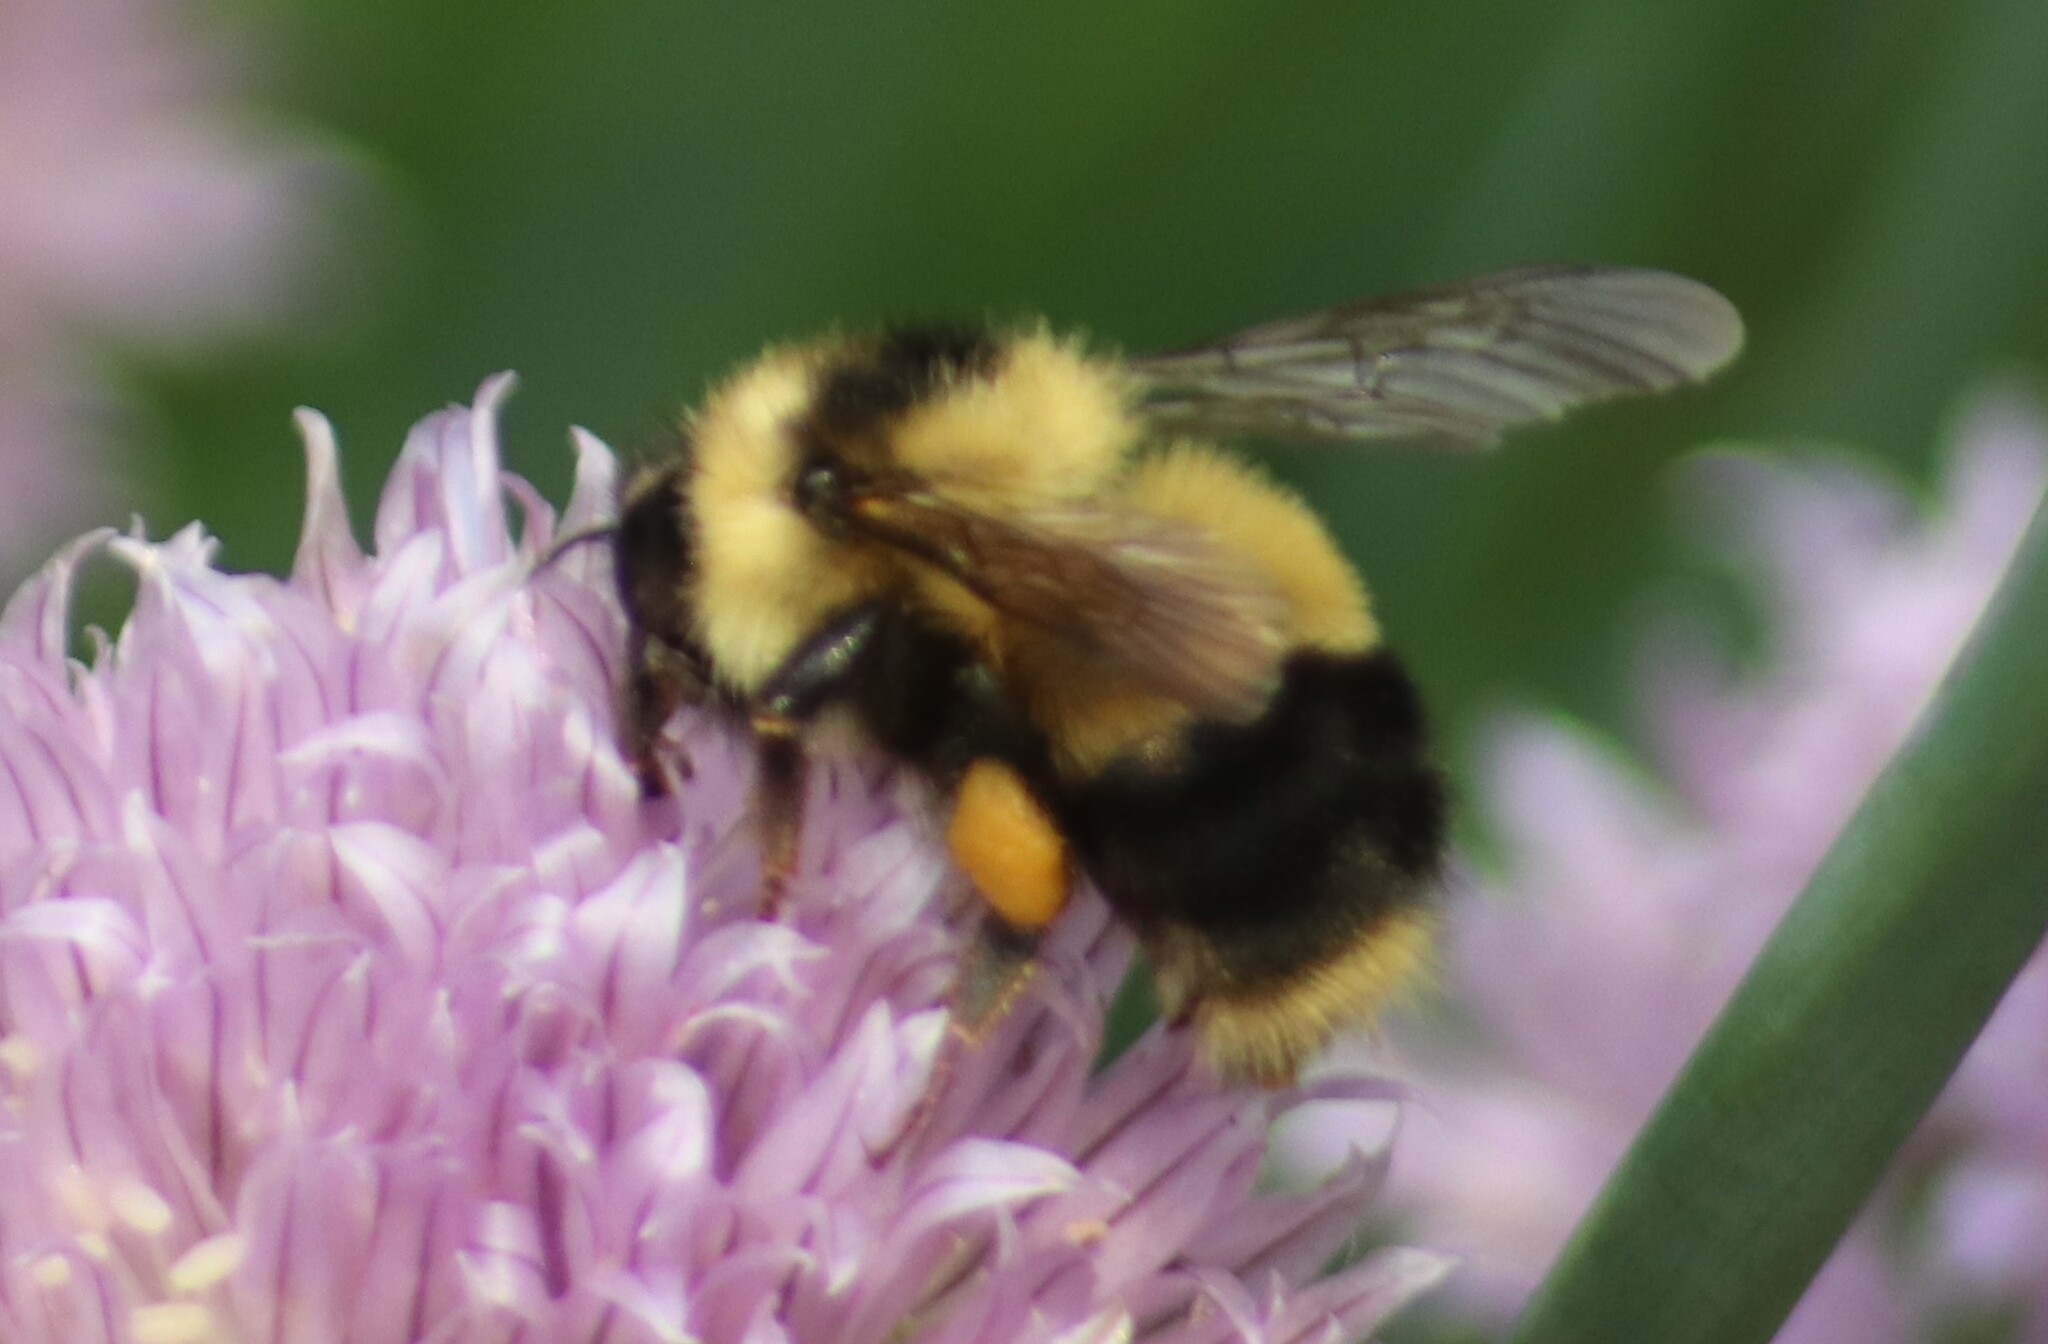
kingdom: Animalia
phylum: Arthropoda
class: Insecta
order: Hymenoptera
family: Apidae
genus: Bombus
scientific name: Bombus sandersoni
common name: Sanderson bumble bee
